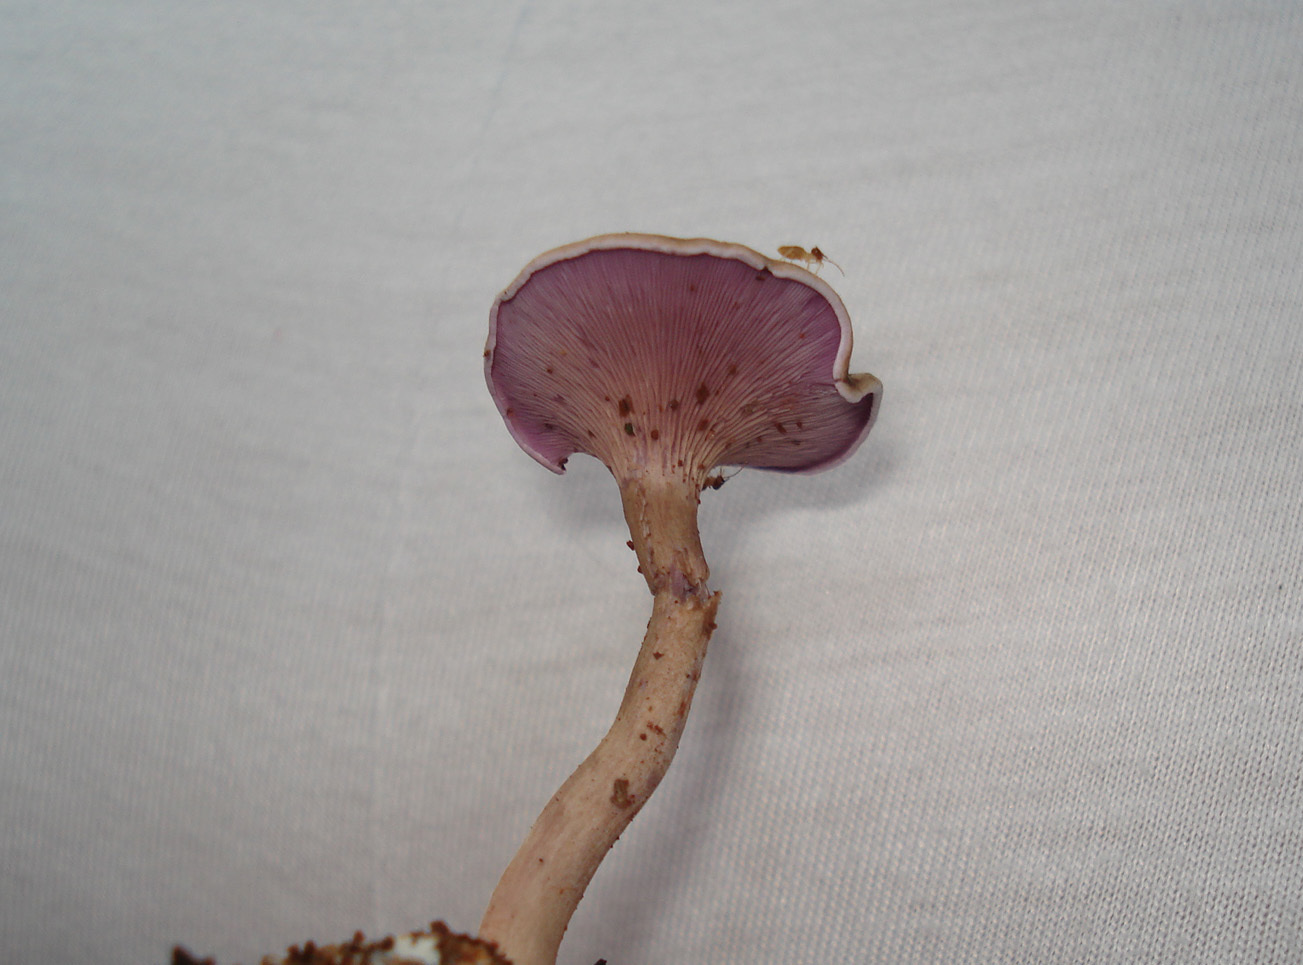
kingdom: Fungi
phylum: Basidiomycota
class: Agaricomycetes
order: Agaricales
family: Marasmiaceae
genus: Trogia
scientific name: Trogia cantharelloides
